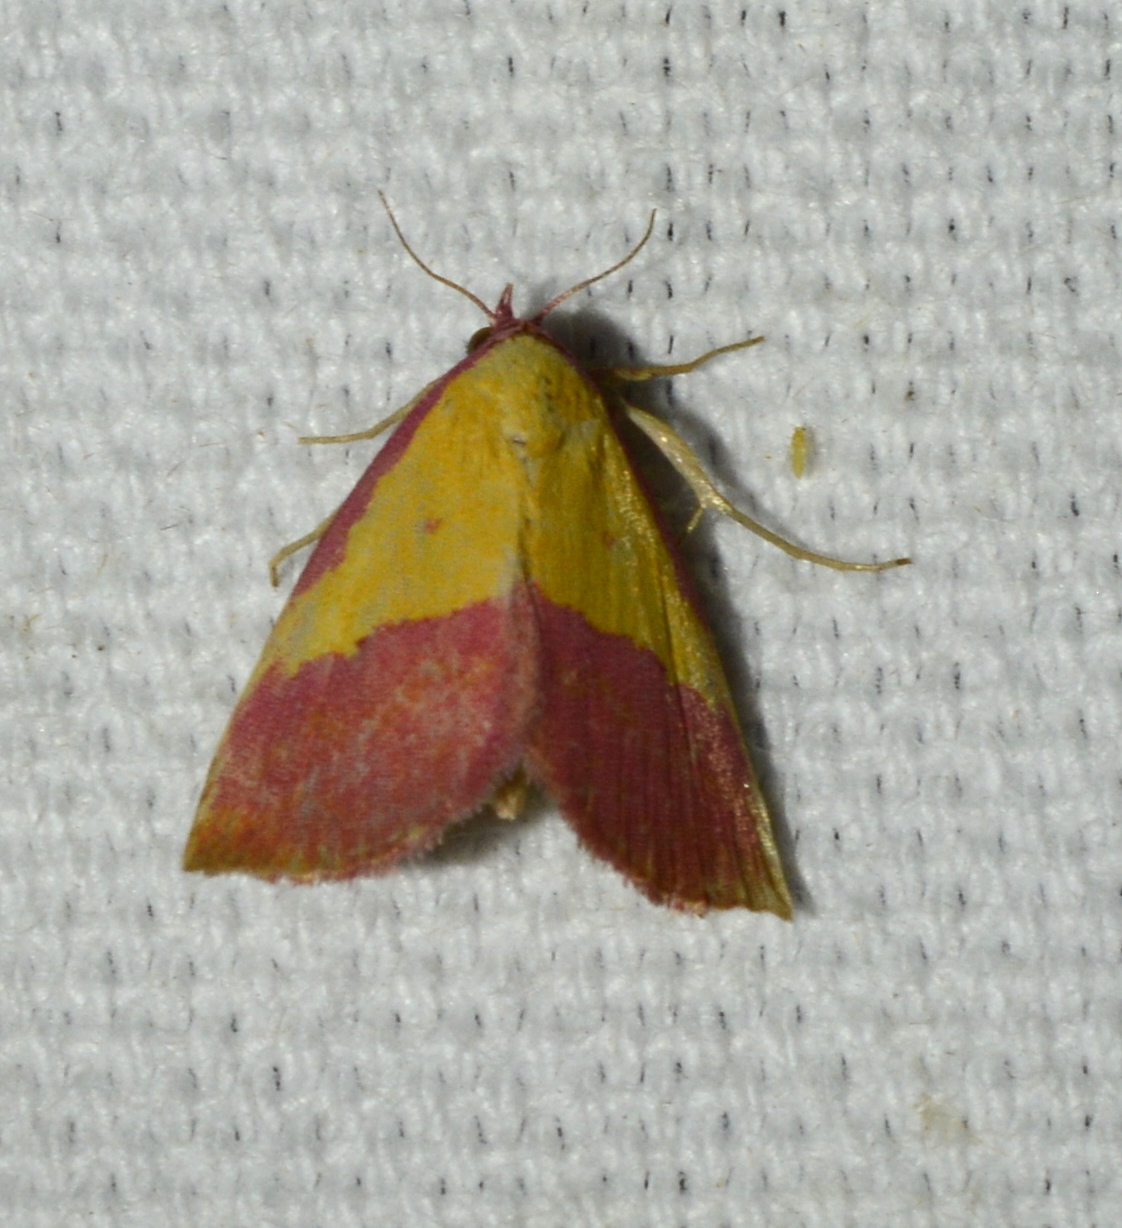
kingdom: Animalia
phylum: Arthropoda
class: Insecta
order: Lepidoptera
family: Erebidae
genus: Phytometra
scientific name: Phytometra rhodarialis
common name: Pink-bordered yellow
